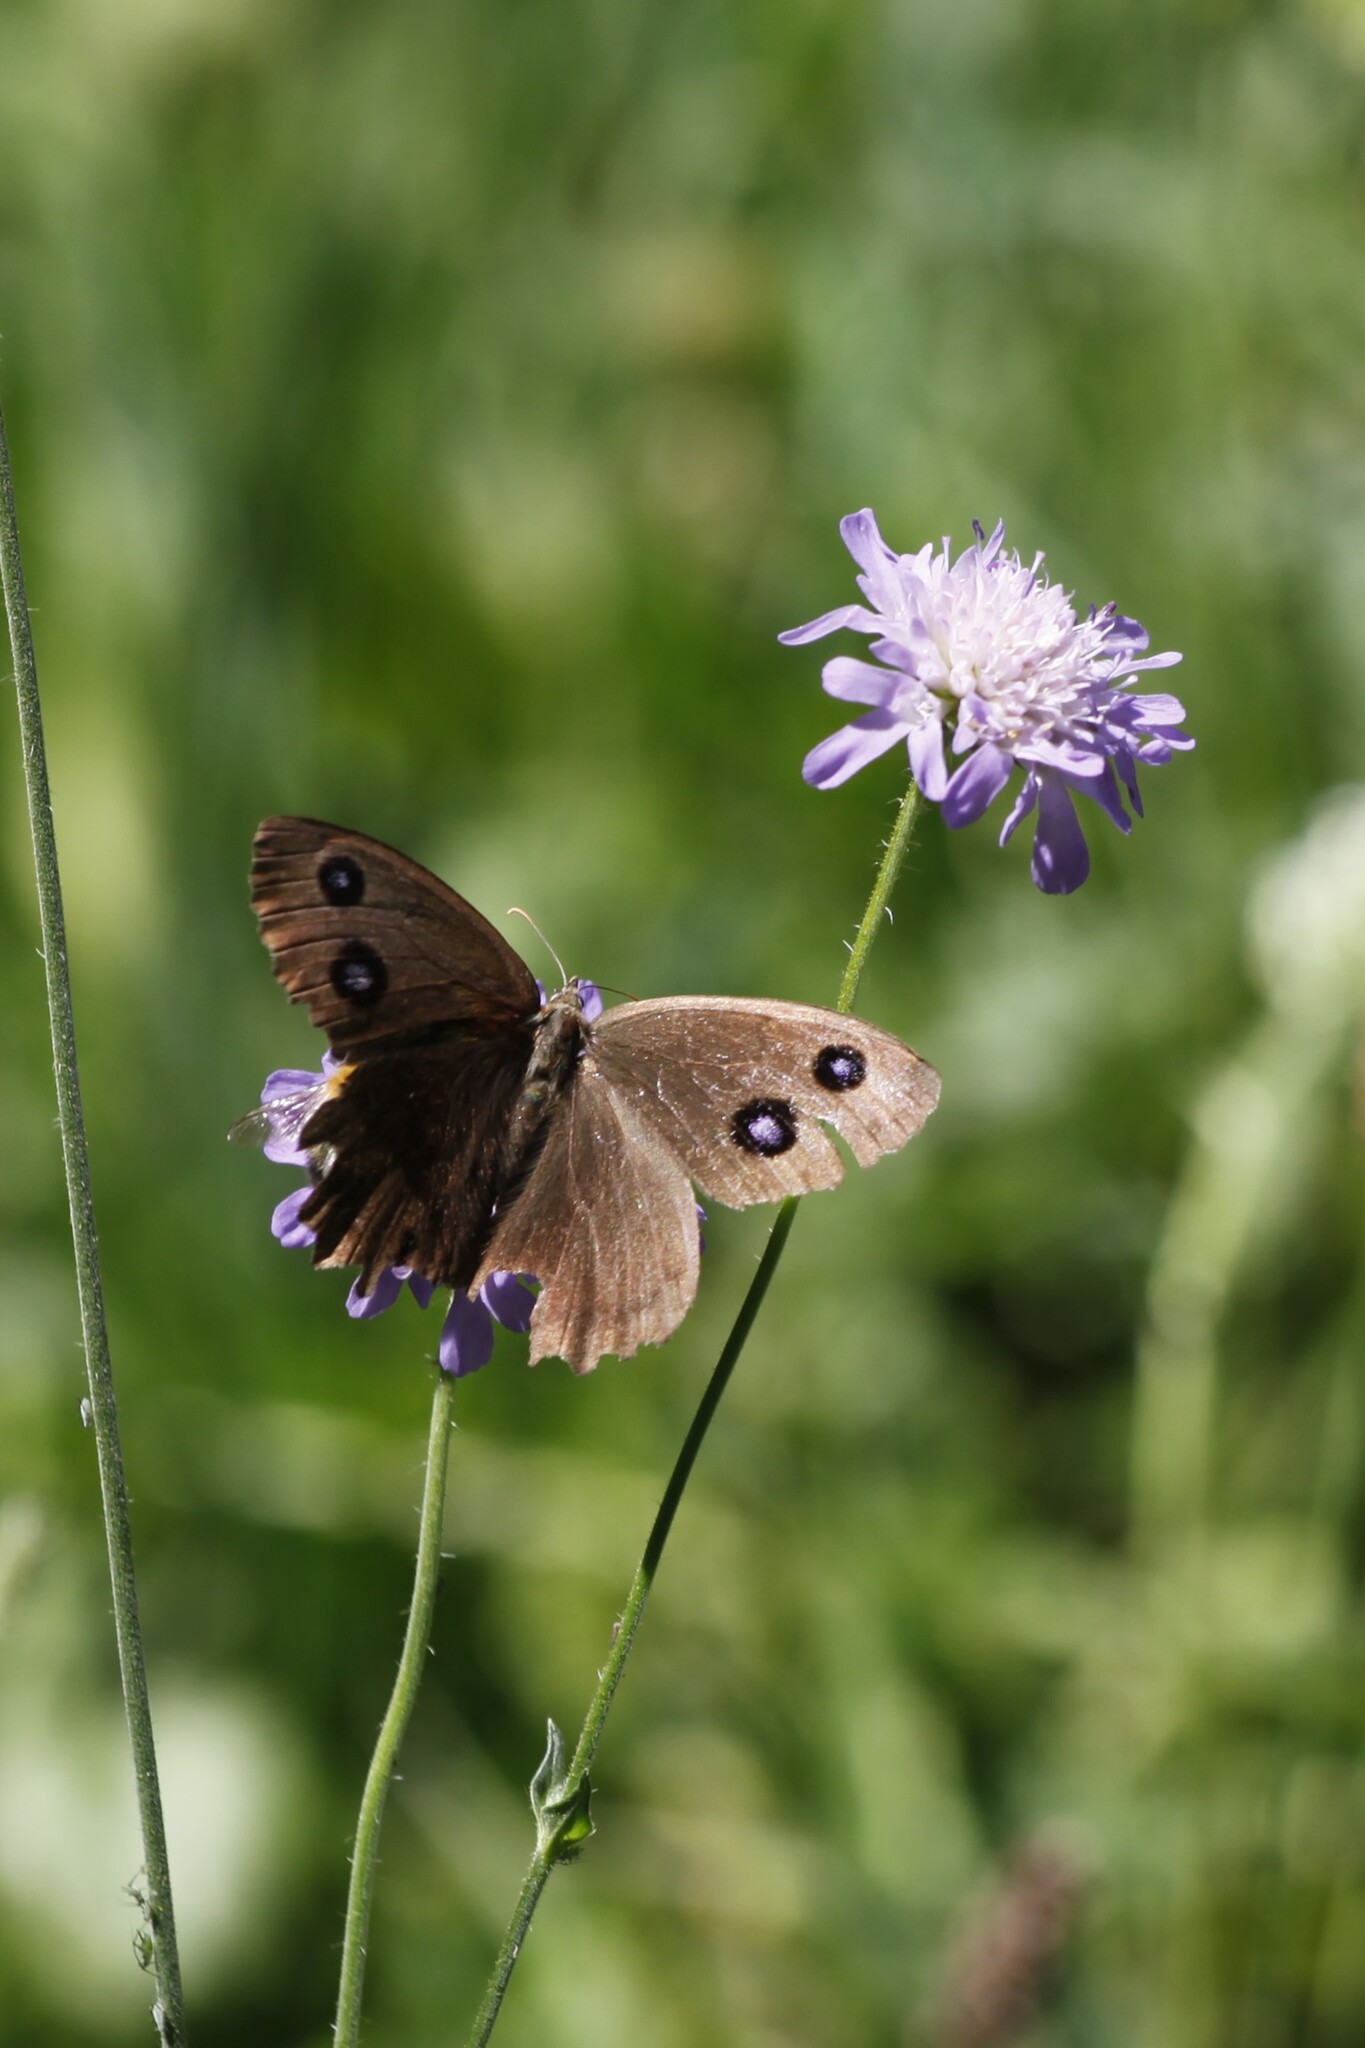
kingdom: Animalia
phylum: Arthropoda
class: Insecta
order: Lepidoptera
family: Nymphalidae
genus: Minois
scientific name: Minois dryas
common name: Dryad
